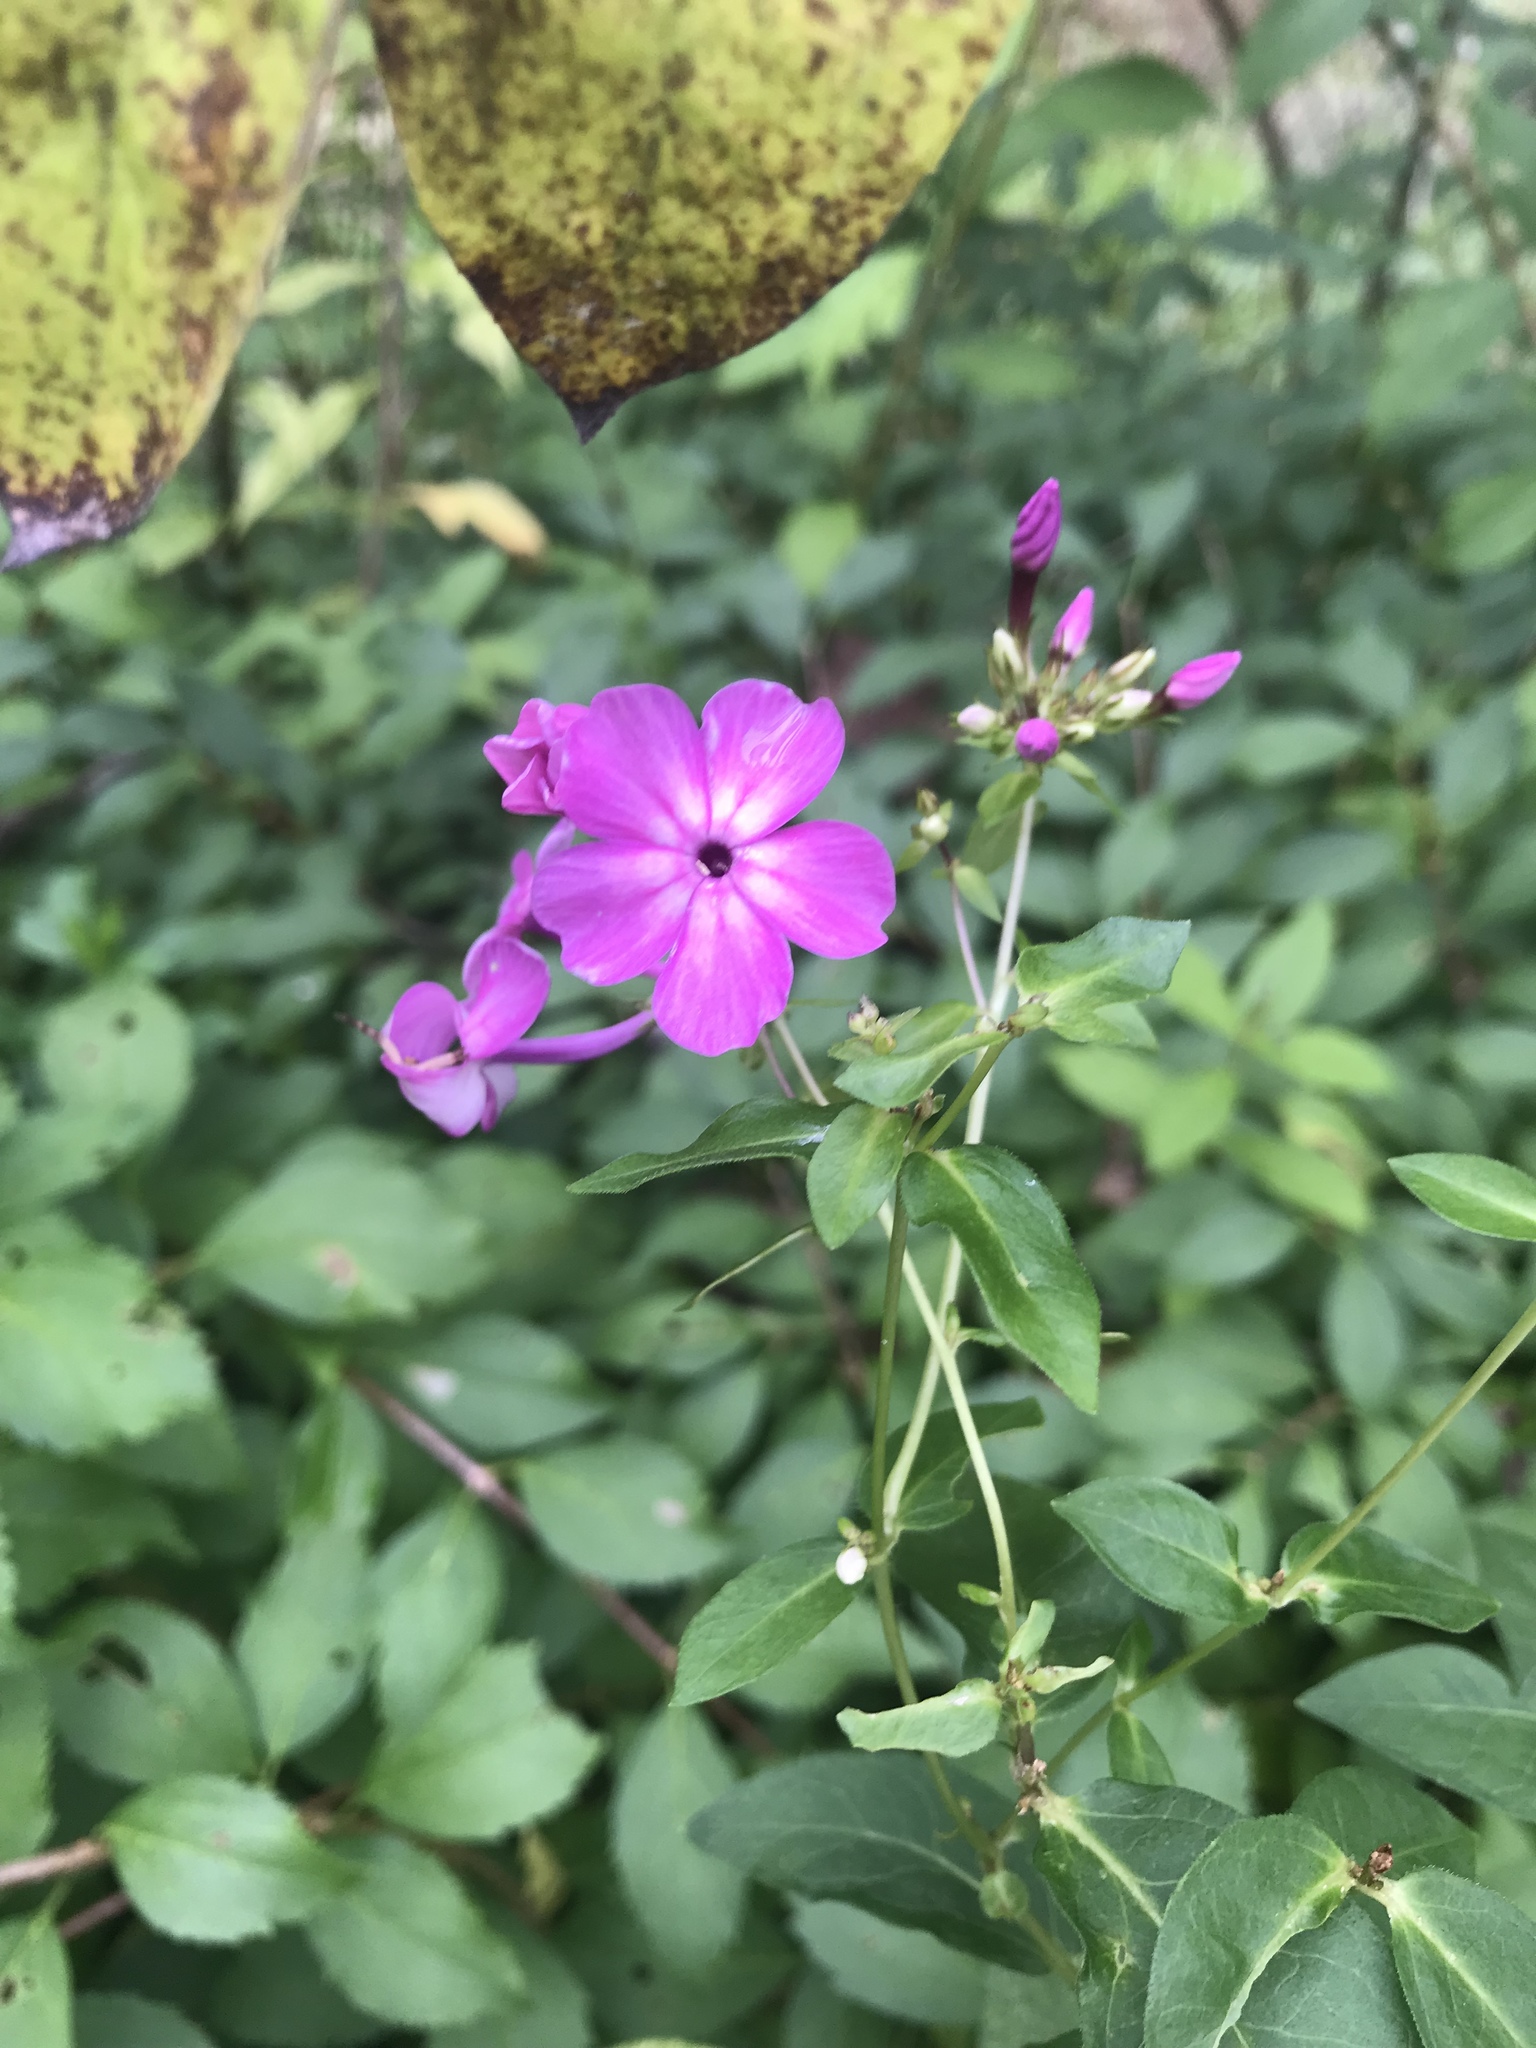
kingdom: Plantae
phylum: Tracheophyta
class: Magnoliopsida
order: Ericales
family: Polemoniaceae
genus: Phlox
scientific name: Phlox paniculata
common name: Fall phlox
